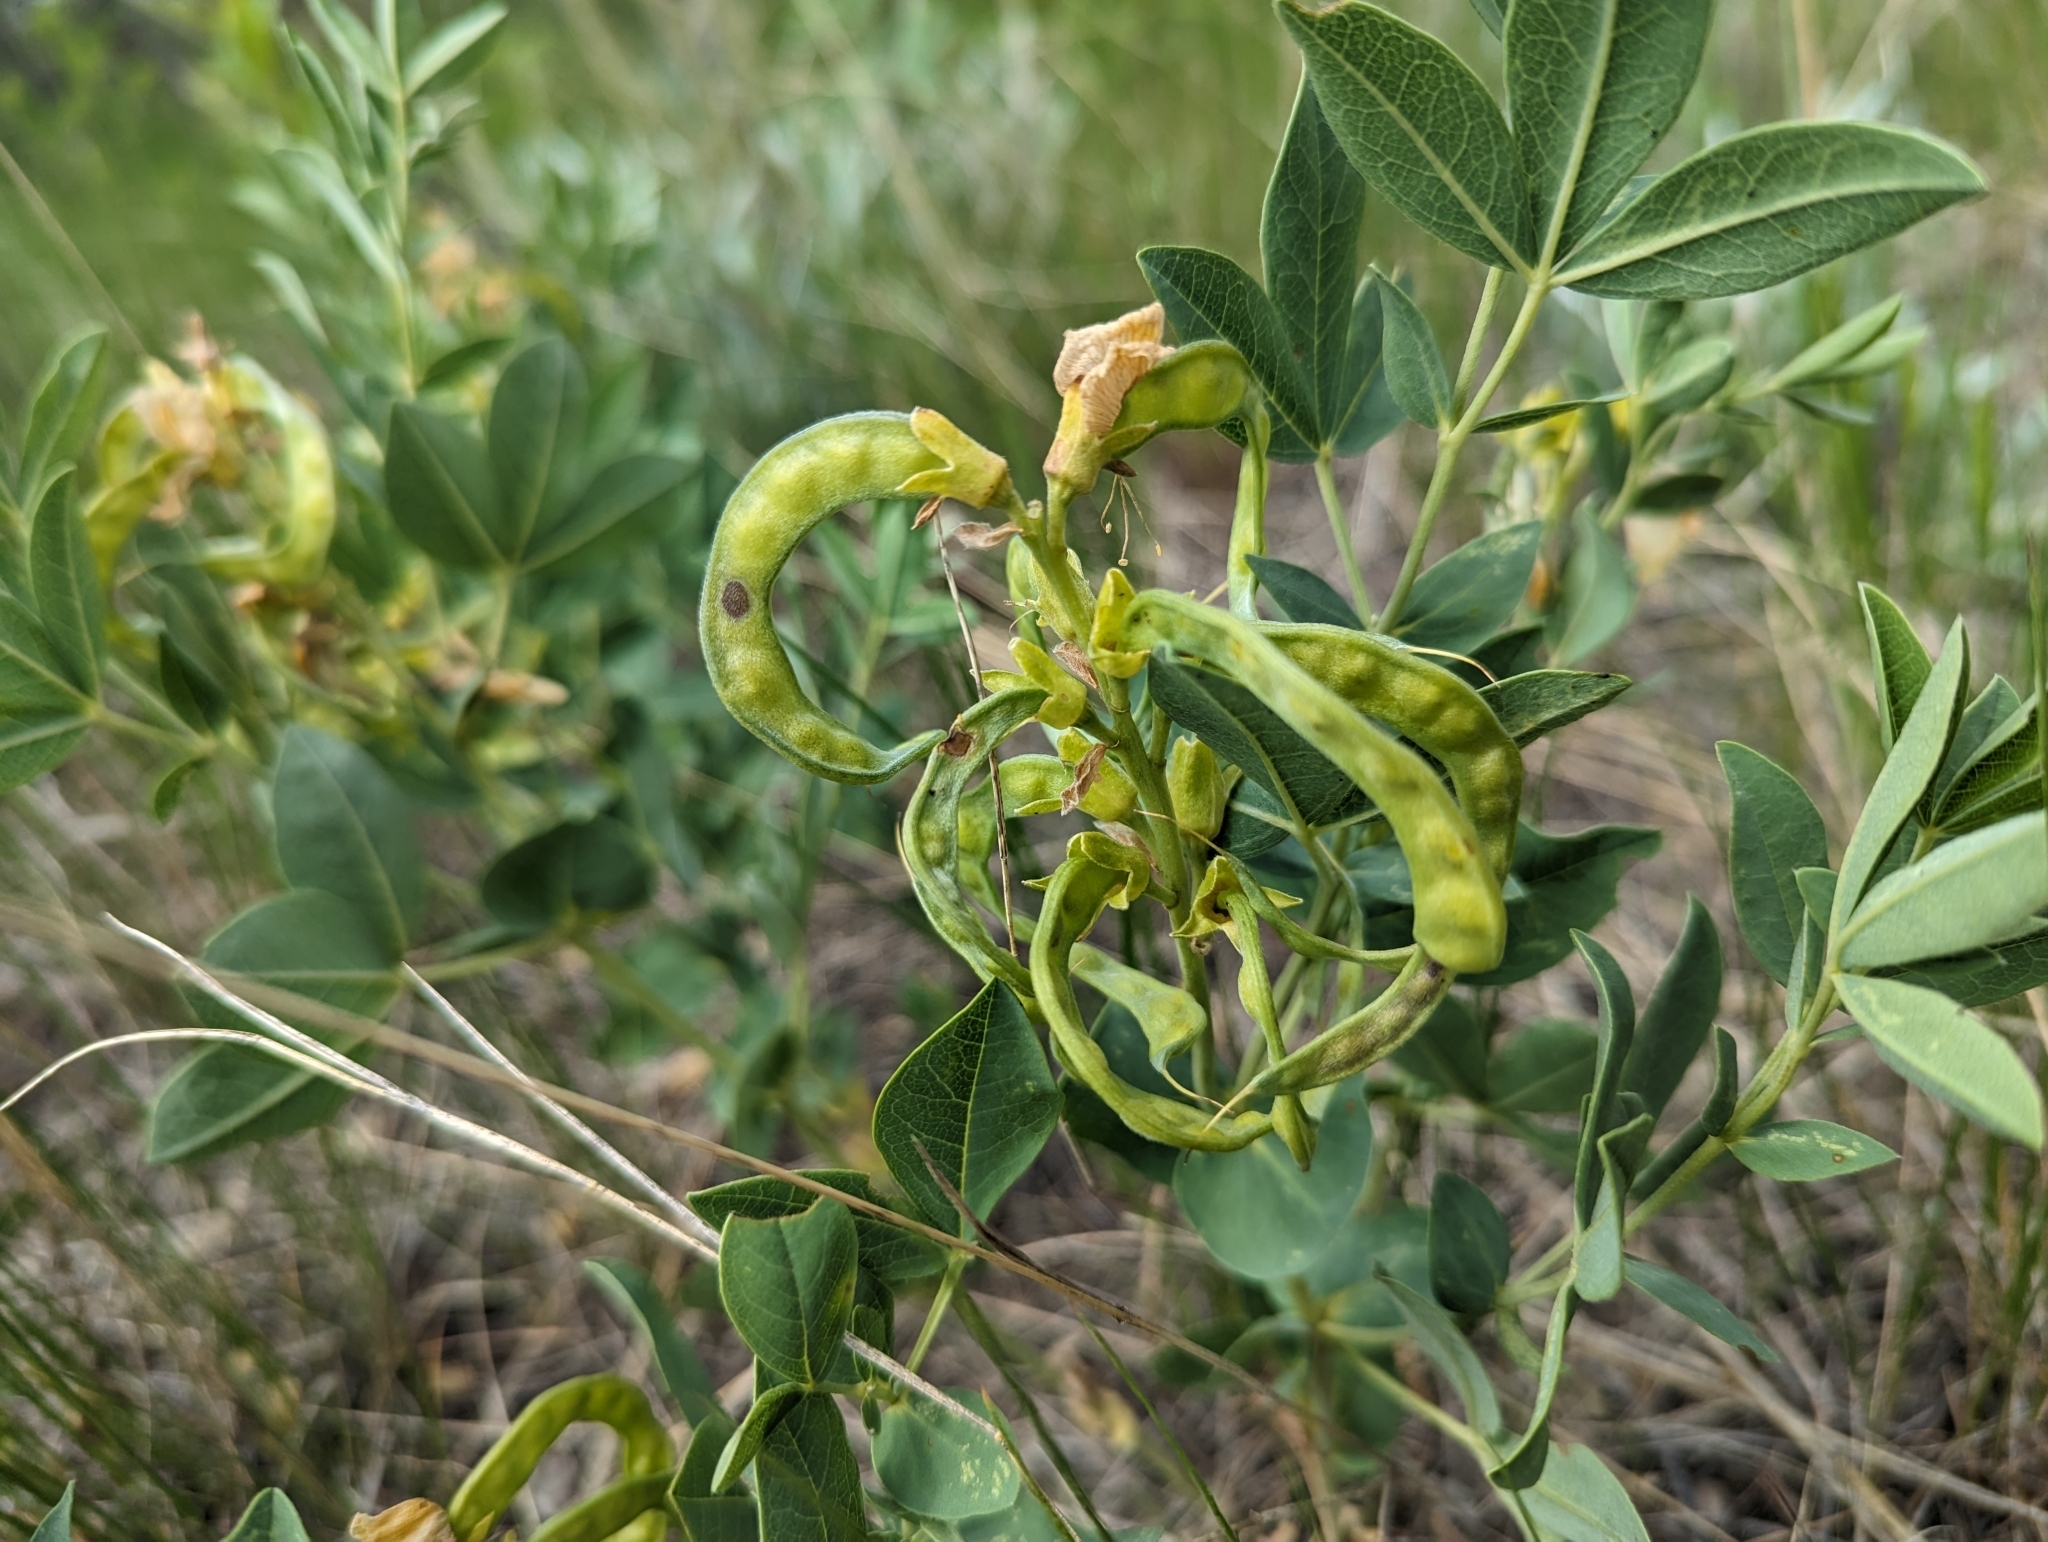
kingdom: Plantae
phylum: Tracheophyta
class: Magnoliopsida
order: Fabales
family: Fabaceae
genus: Thermopsis
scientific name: Thermopsis rhombifolia
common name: Circle-pod-pea
